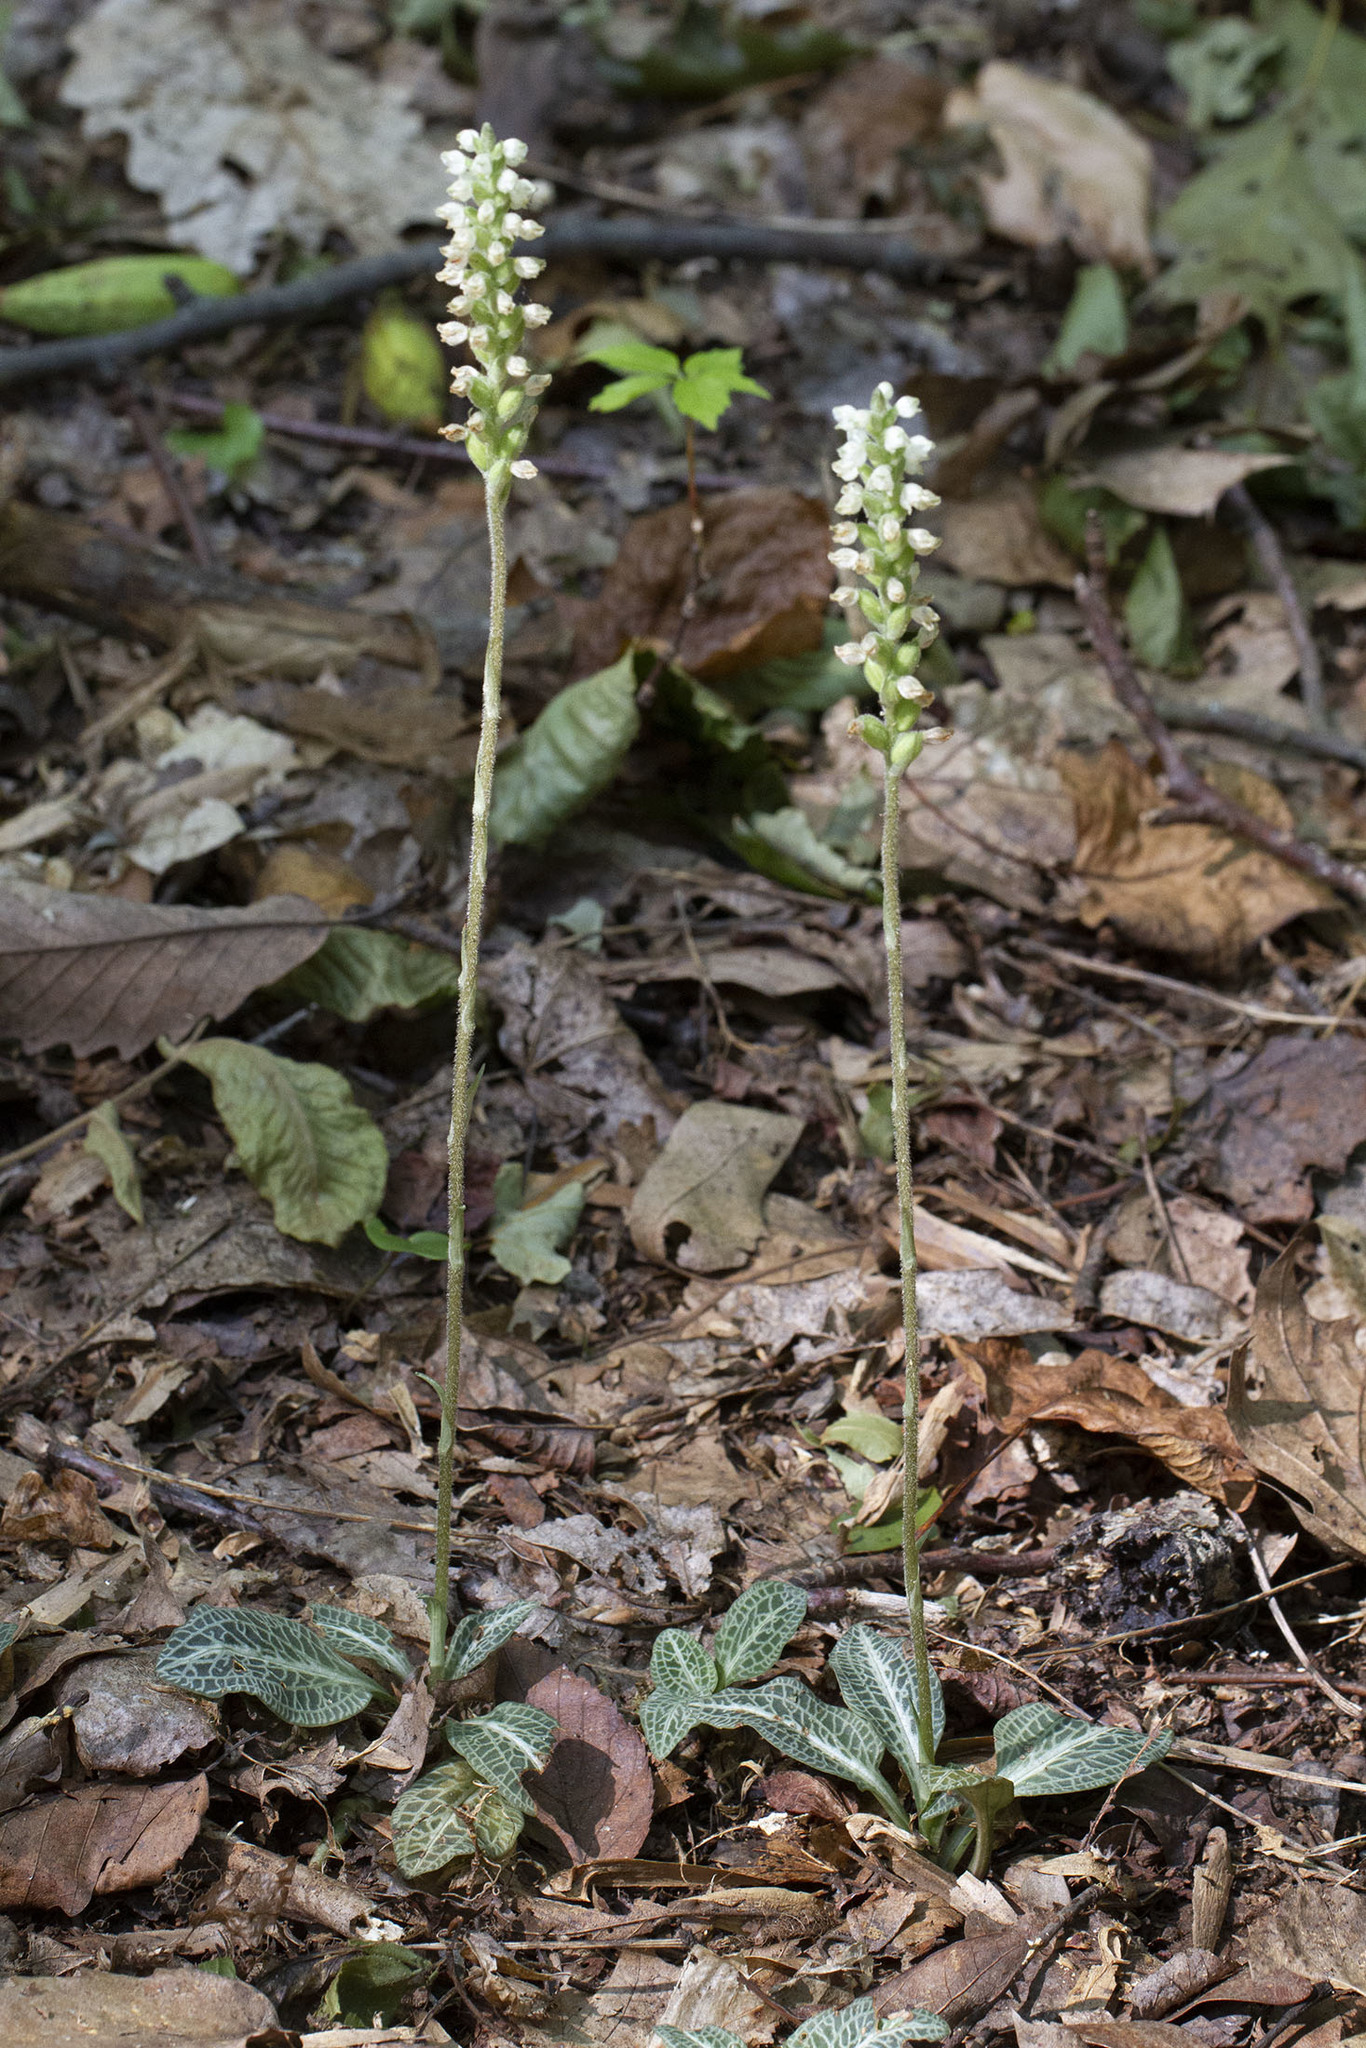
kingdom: Plantae
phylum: Tracheophyta
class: Liliopsida
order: Asparagales
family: Orchidaceae
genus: Goodyera
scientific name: Goodyera pubescens
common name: Downy rattlesnake-plantain
